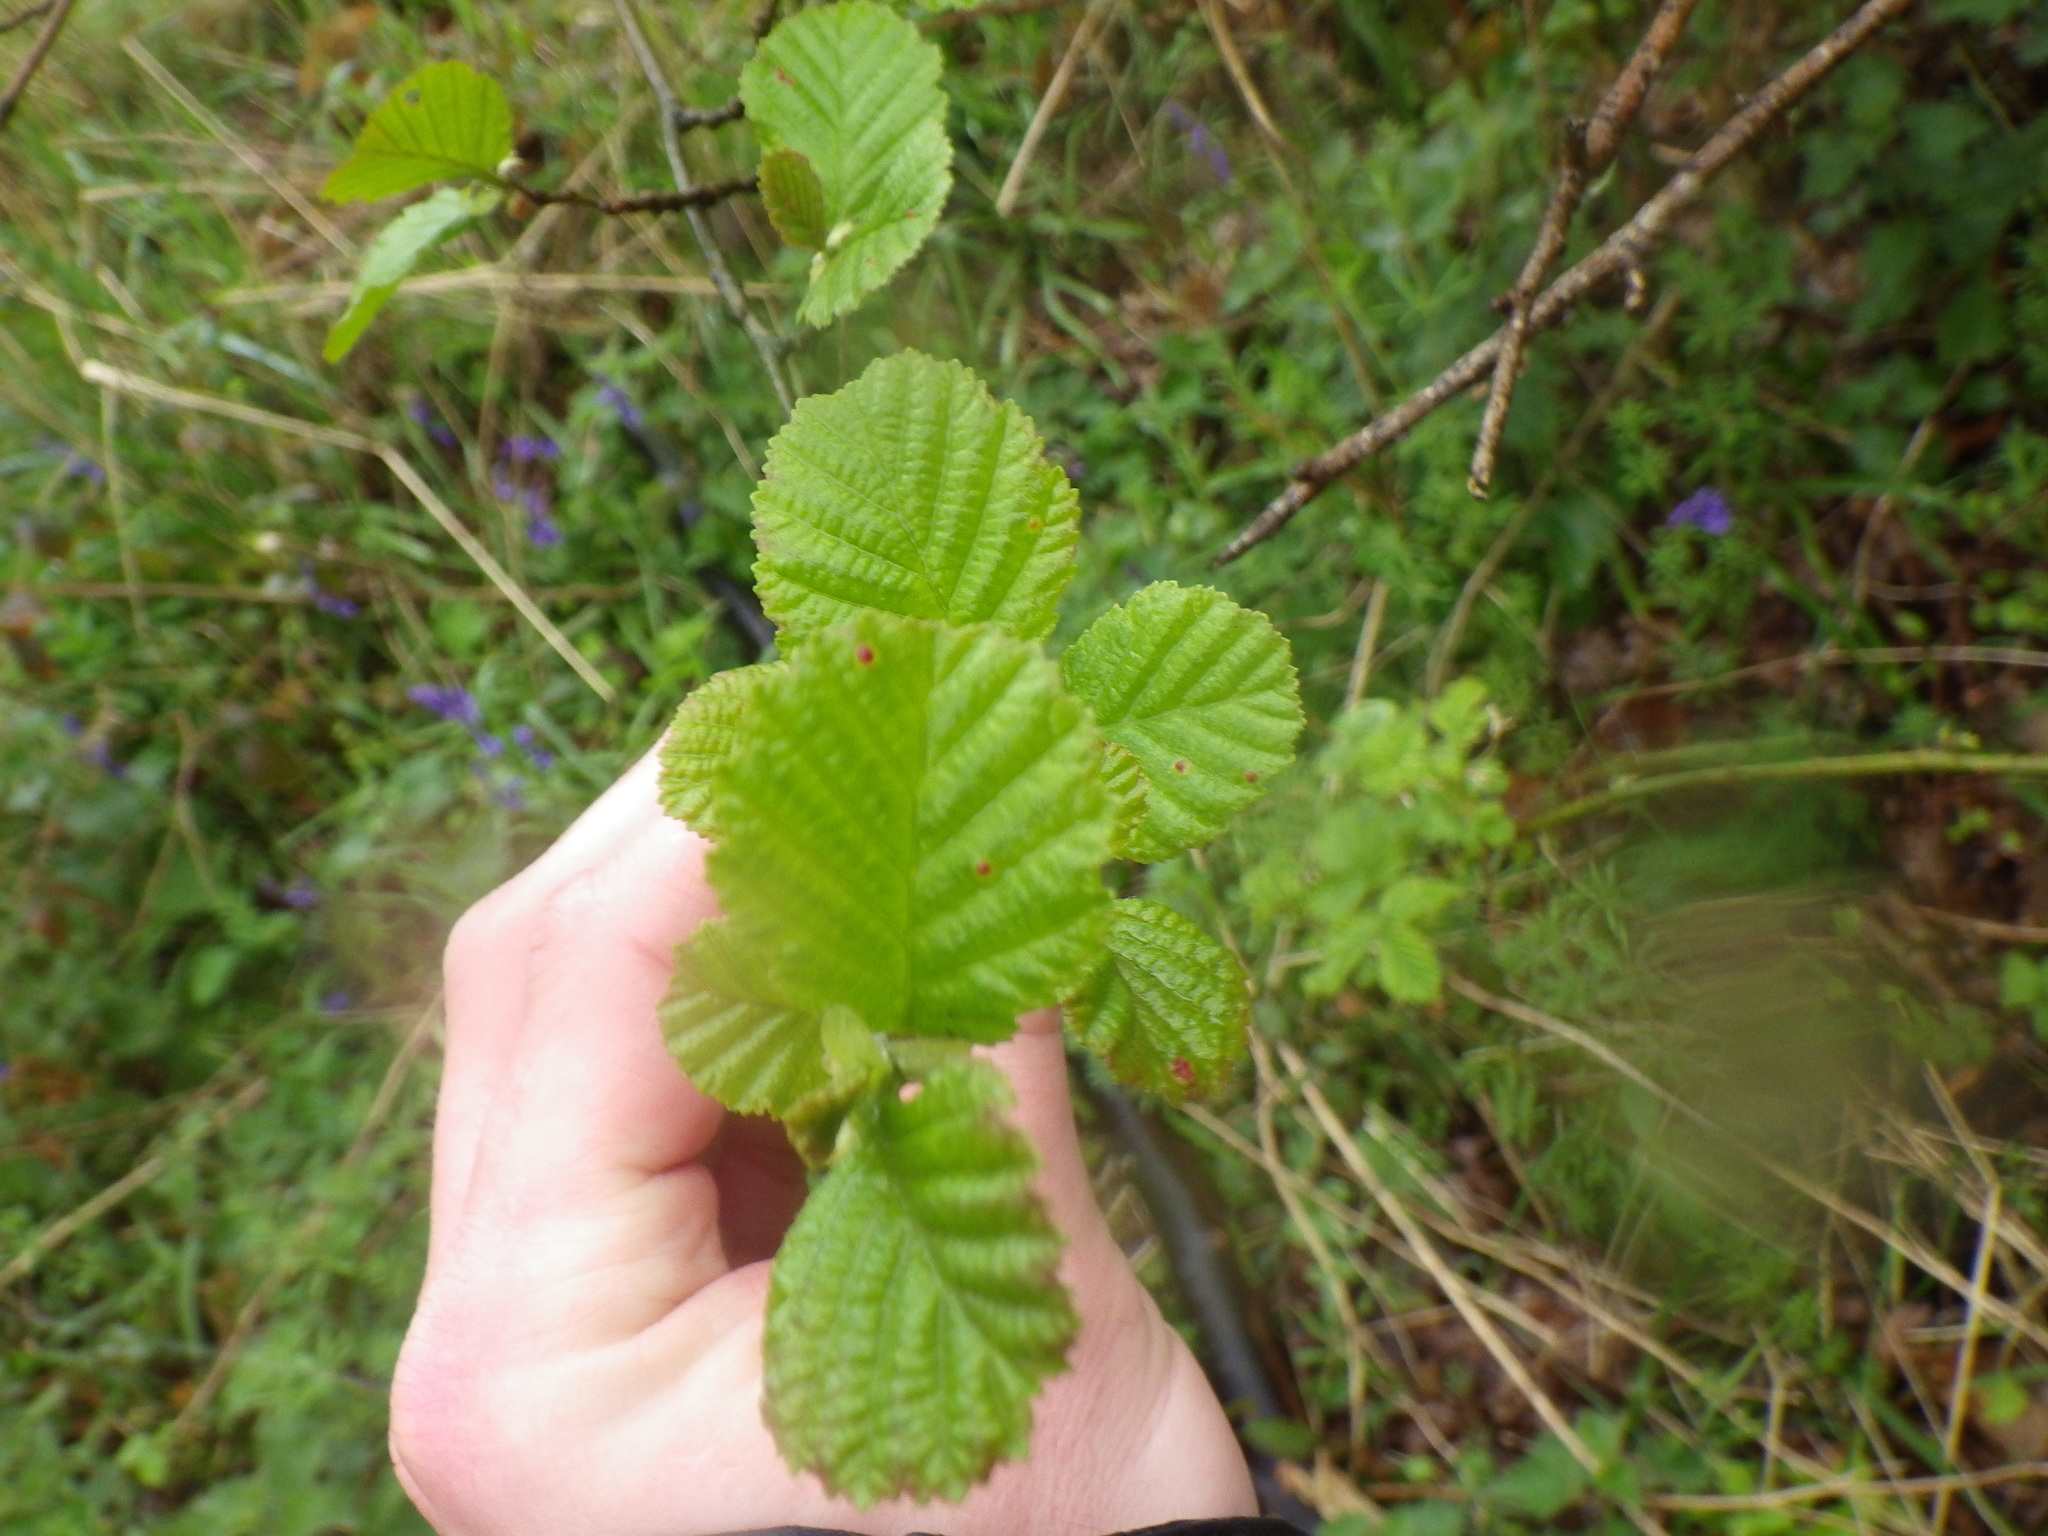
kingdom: Plantae
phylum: Tracheophyta
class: Magnoliopsida
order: Fagales
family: Betulaceae
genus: Alnus
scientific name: Alnus glutinosa
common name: Black alder
